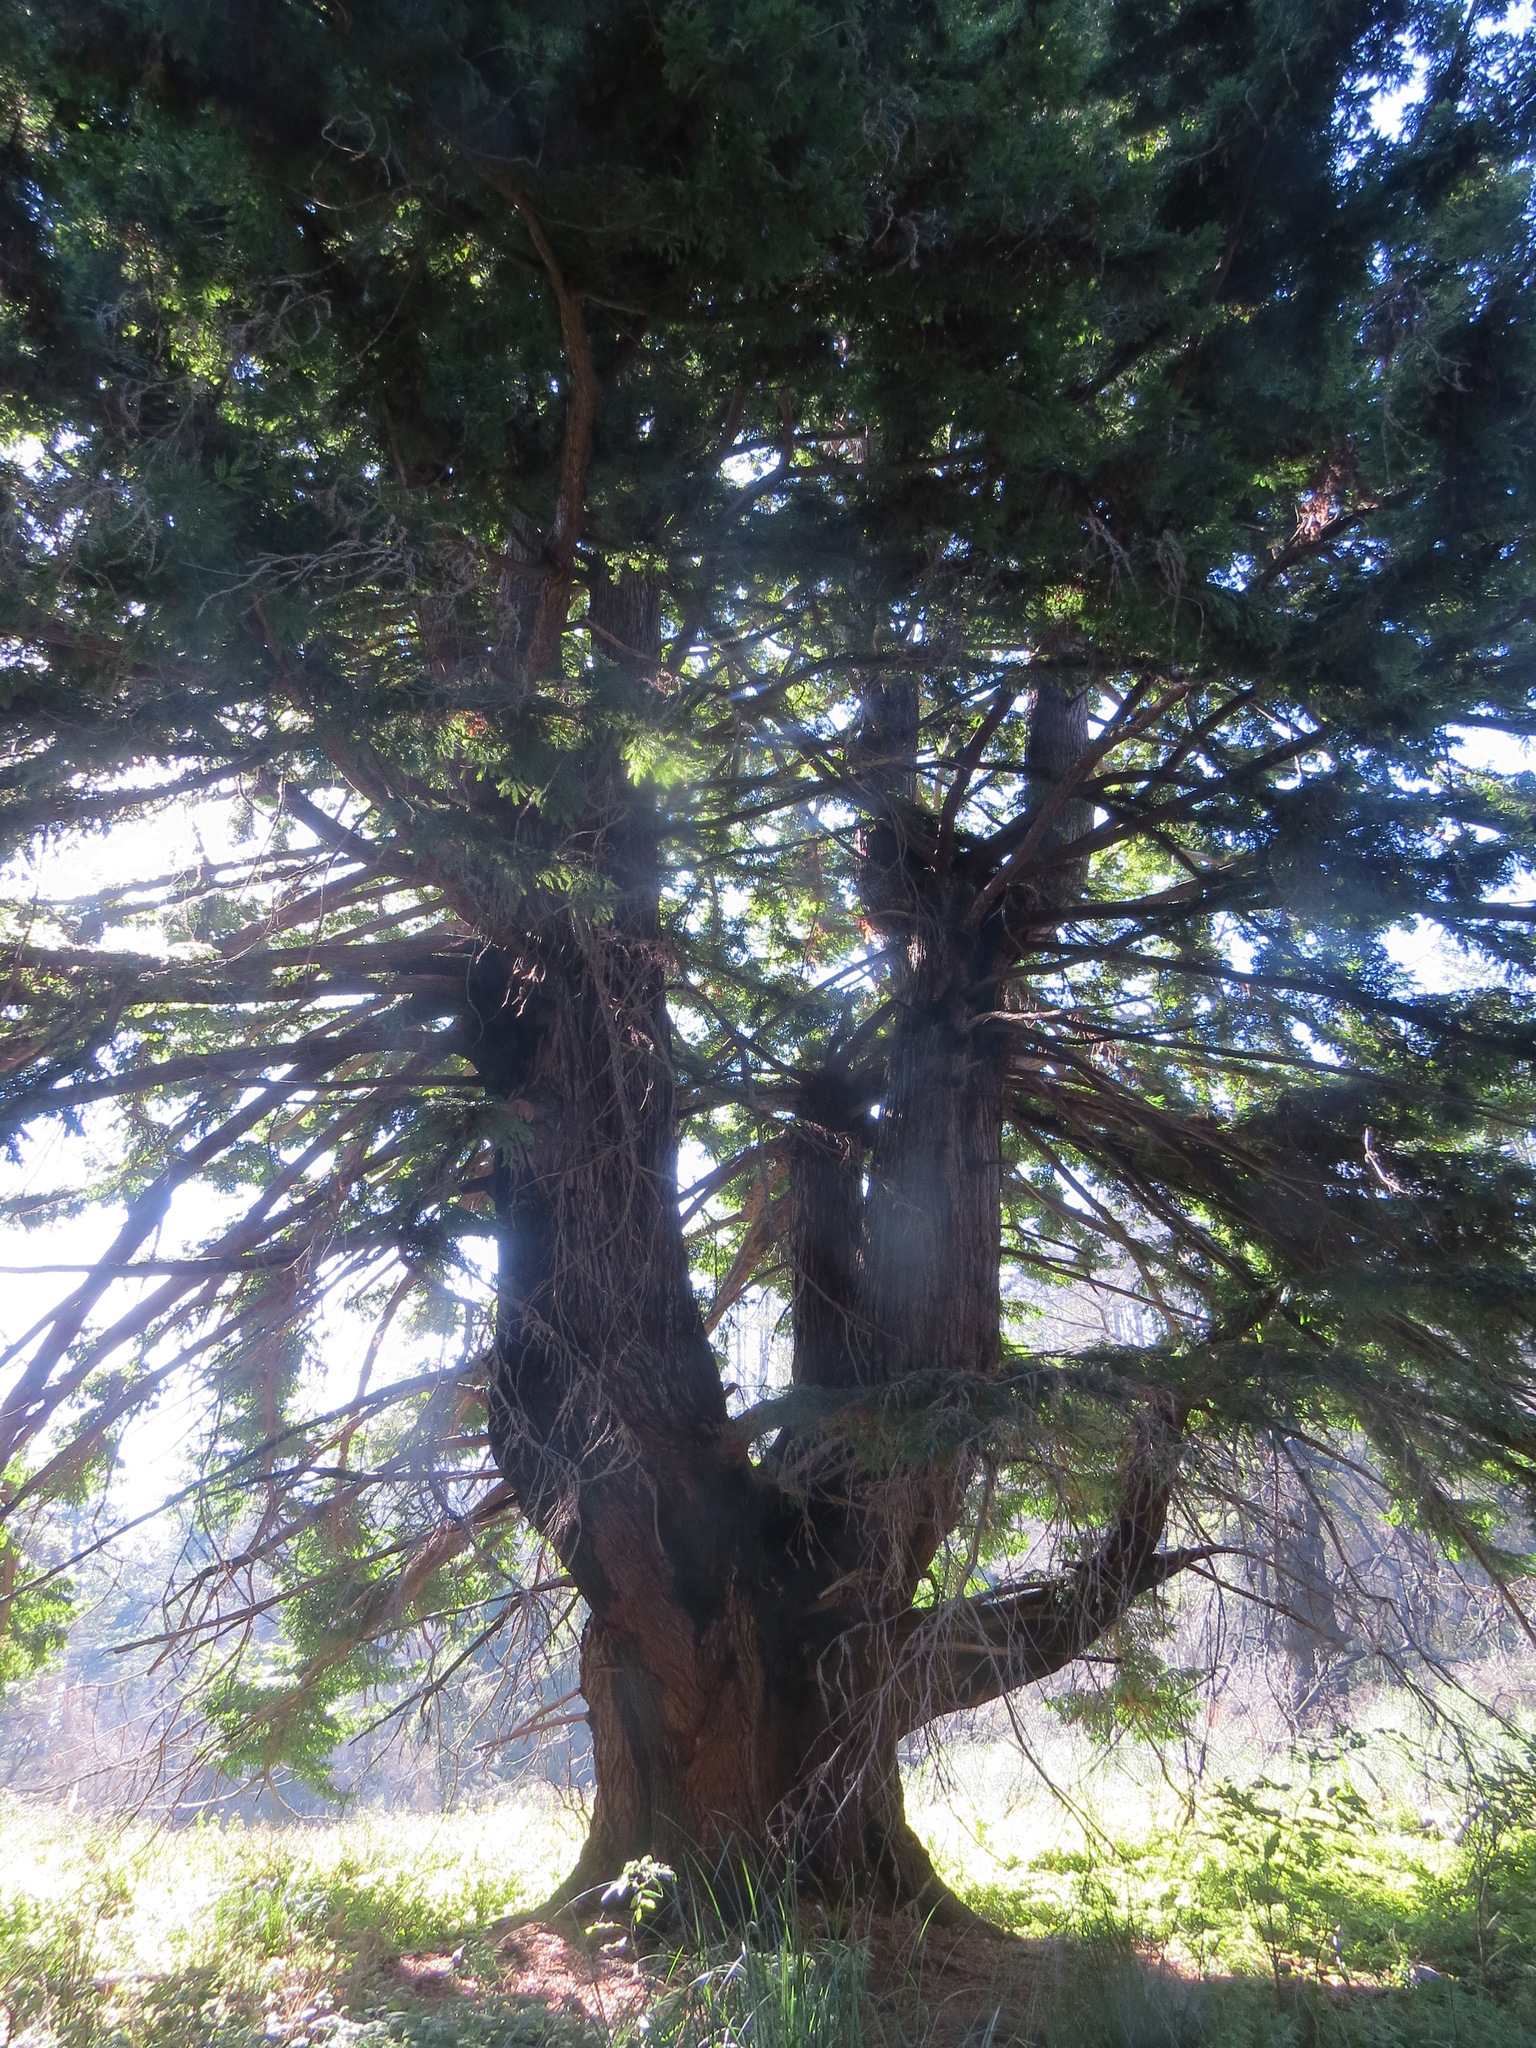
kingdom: Plantae
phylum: Tracheophyta
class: Pinopsida
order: Pinales
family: Cupressaceae
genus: Sequoia
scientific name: Sequoia sempervirens
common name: Coast redwood
